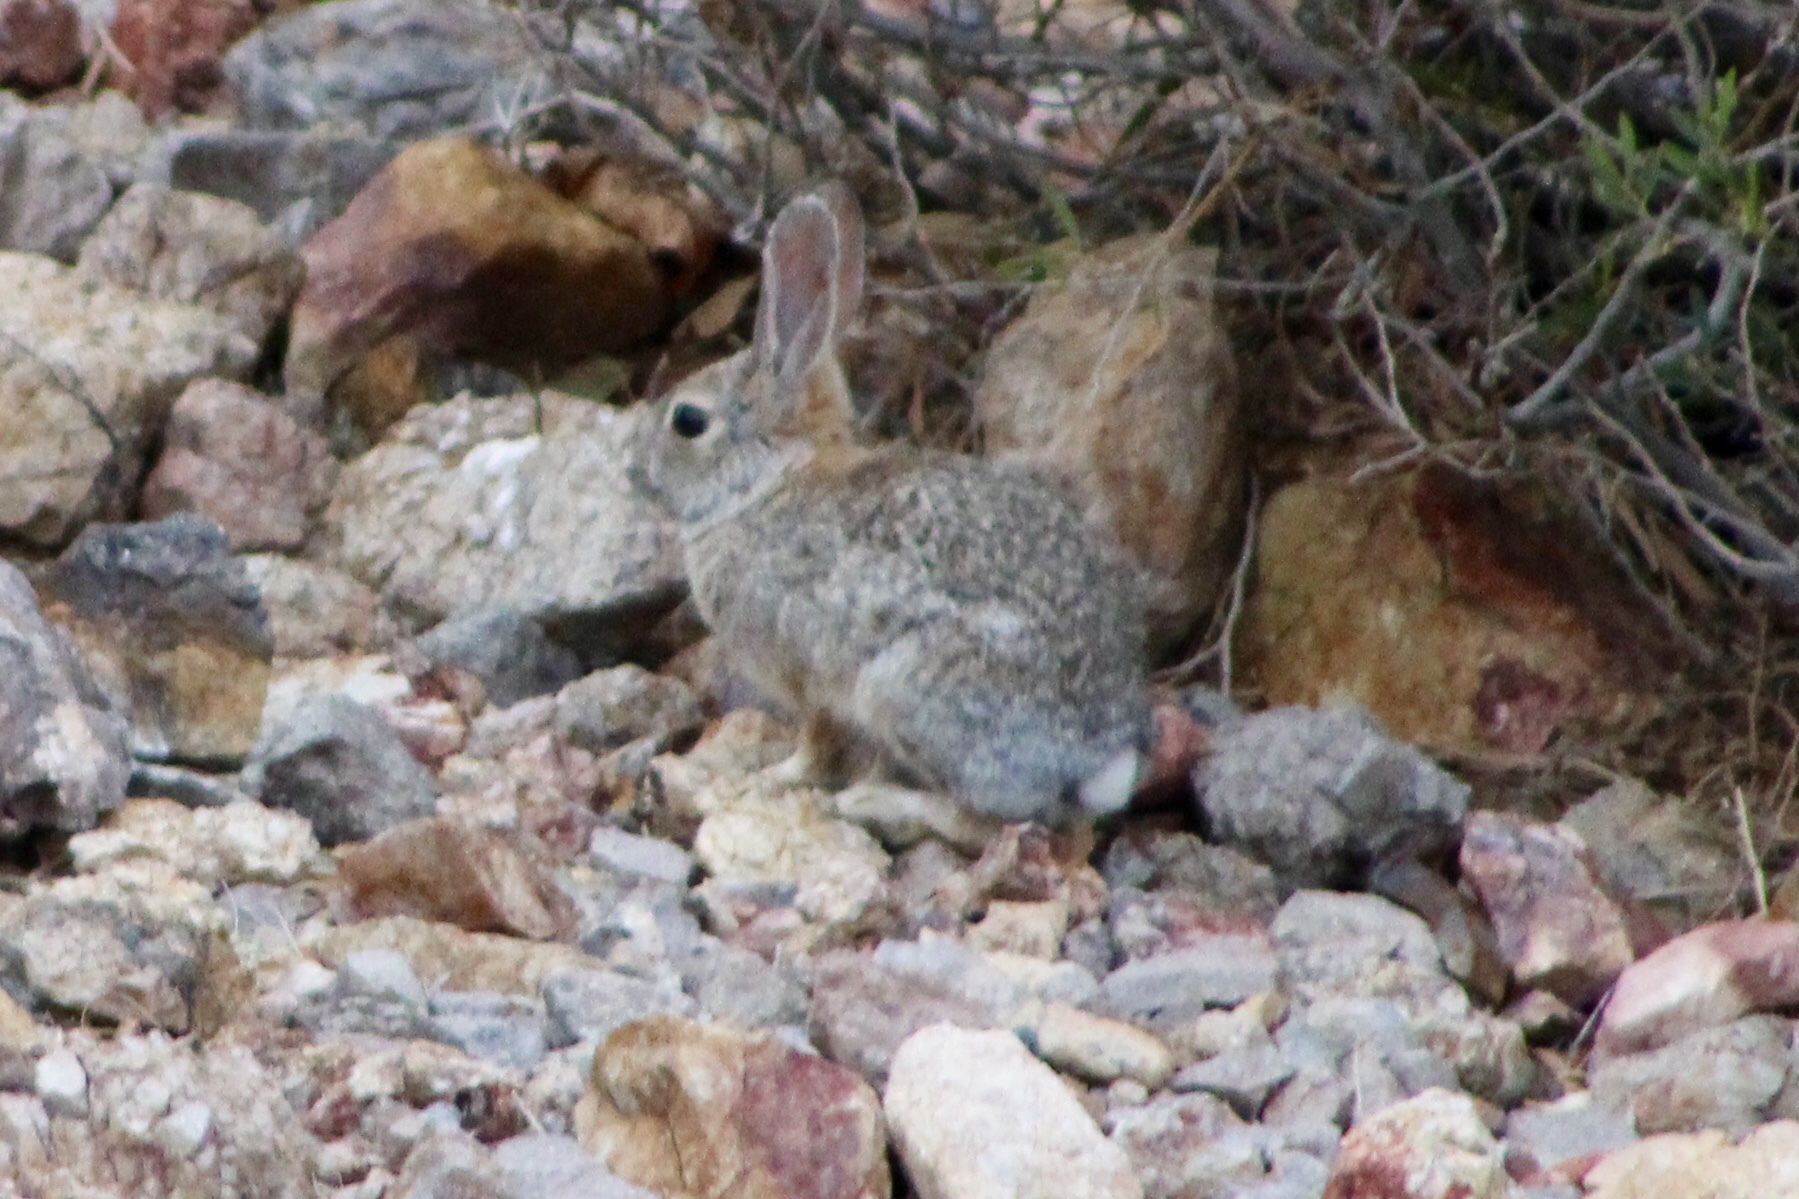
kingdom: Animalia
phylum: Chordata
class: Mammalia
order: Lagomorpha
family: Leporidae
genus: Sylvilagus
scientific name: Sylvilagus audubonii
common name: Desert cottontail
